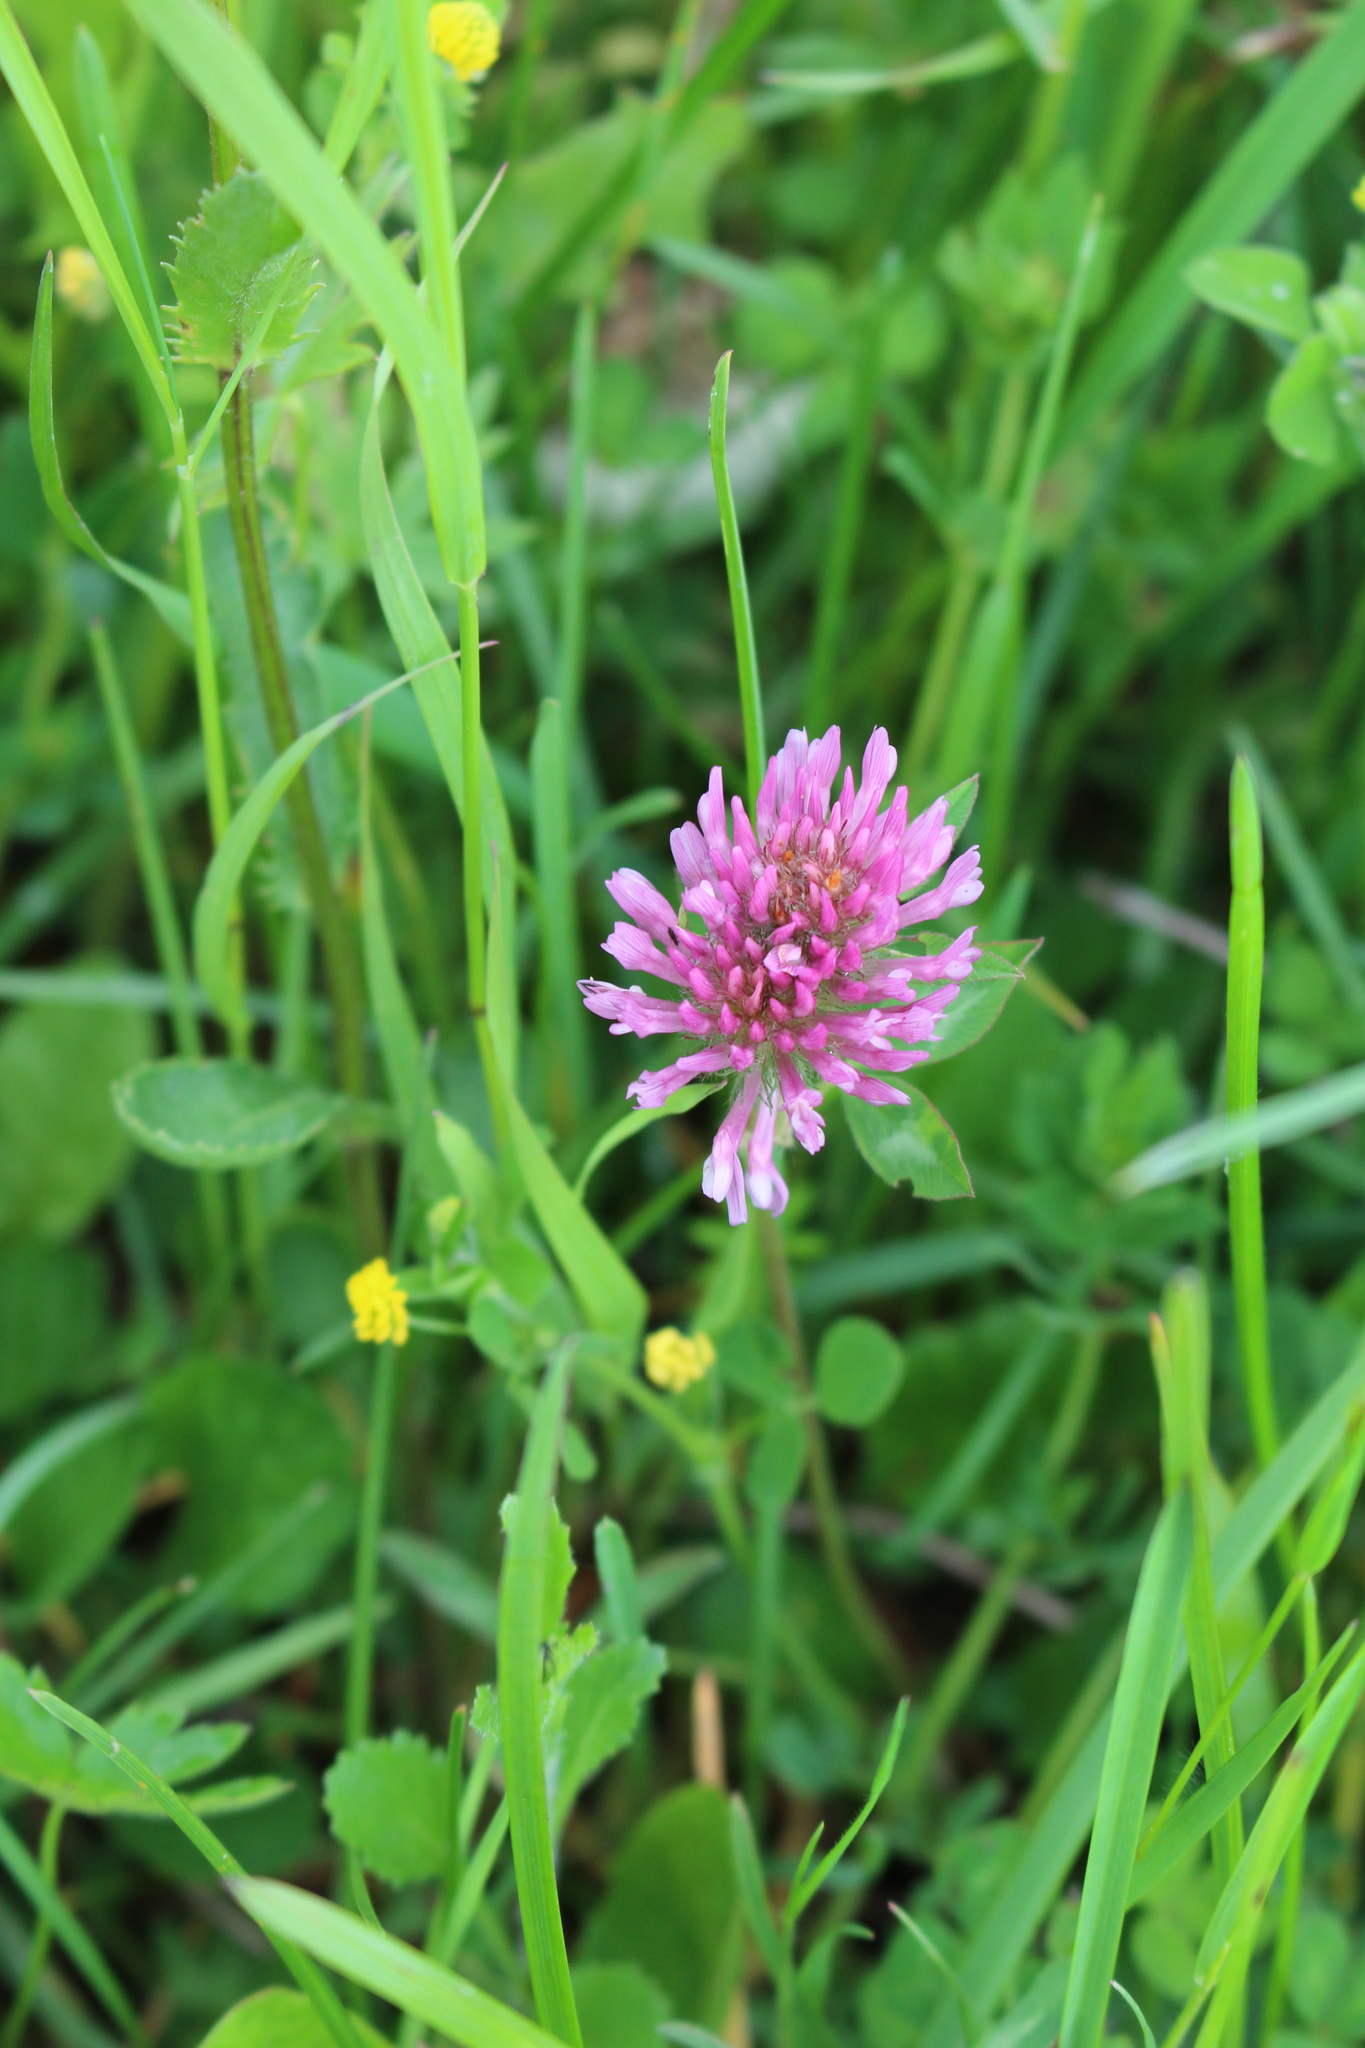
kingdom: Plantae
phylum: Tracheophyta
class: Magnoliopsida
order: Fabales
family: Fabaceae
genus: Trifolium
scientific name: Trifolium pratense
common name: Red clover
